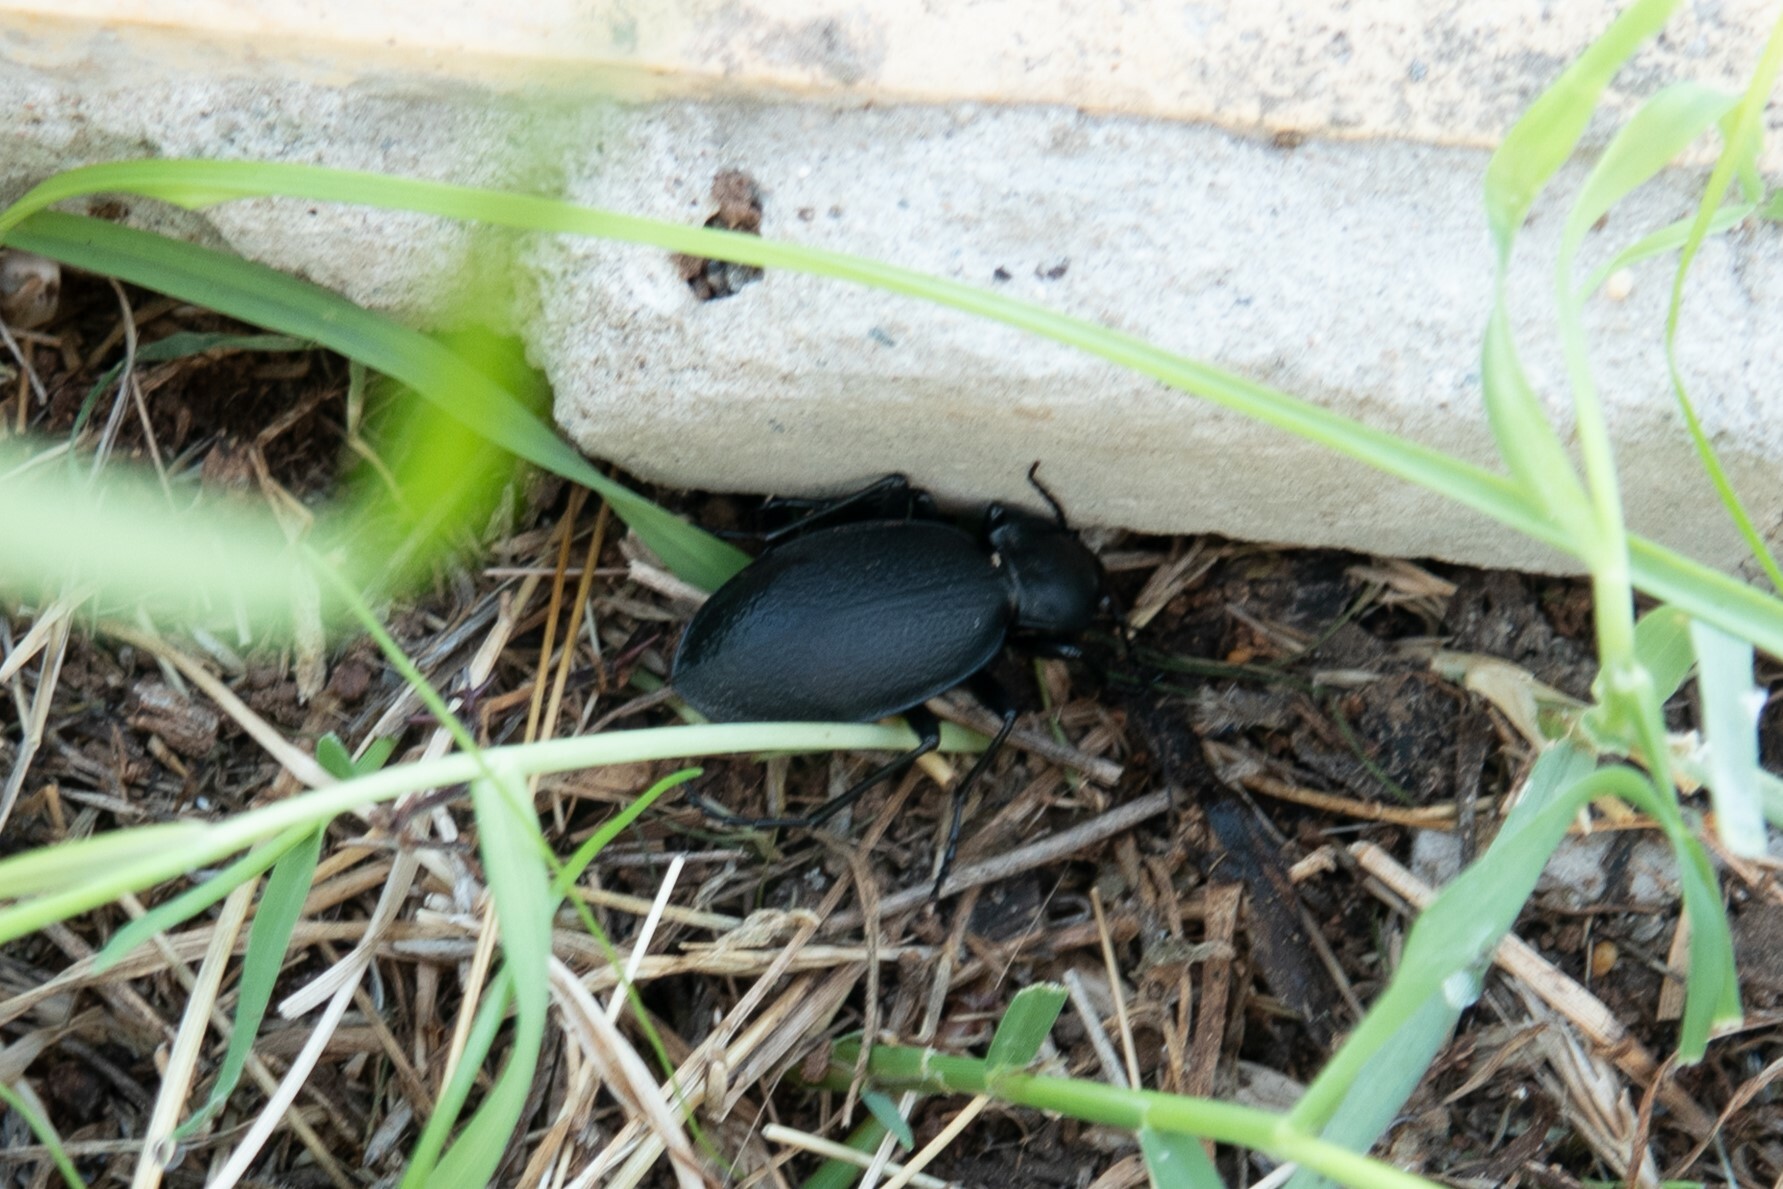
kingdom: Animalia
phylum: Arthropoda
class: Insecta
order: Coleoptera
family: Carabidae
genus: Carabus
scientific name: Carabus coriaceus
